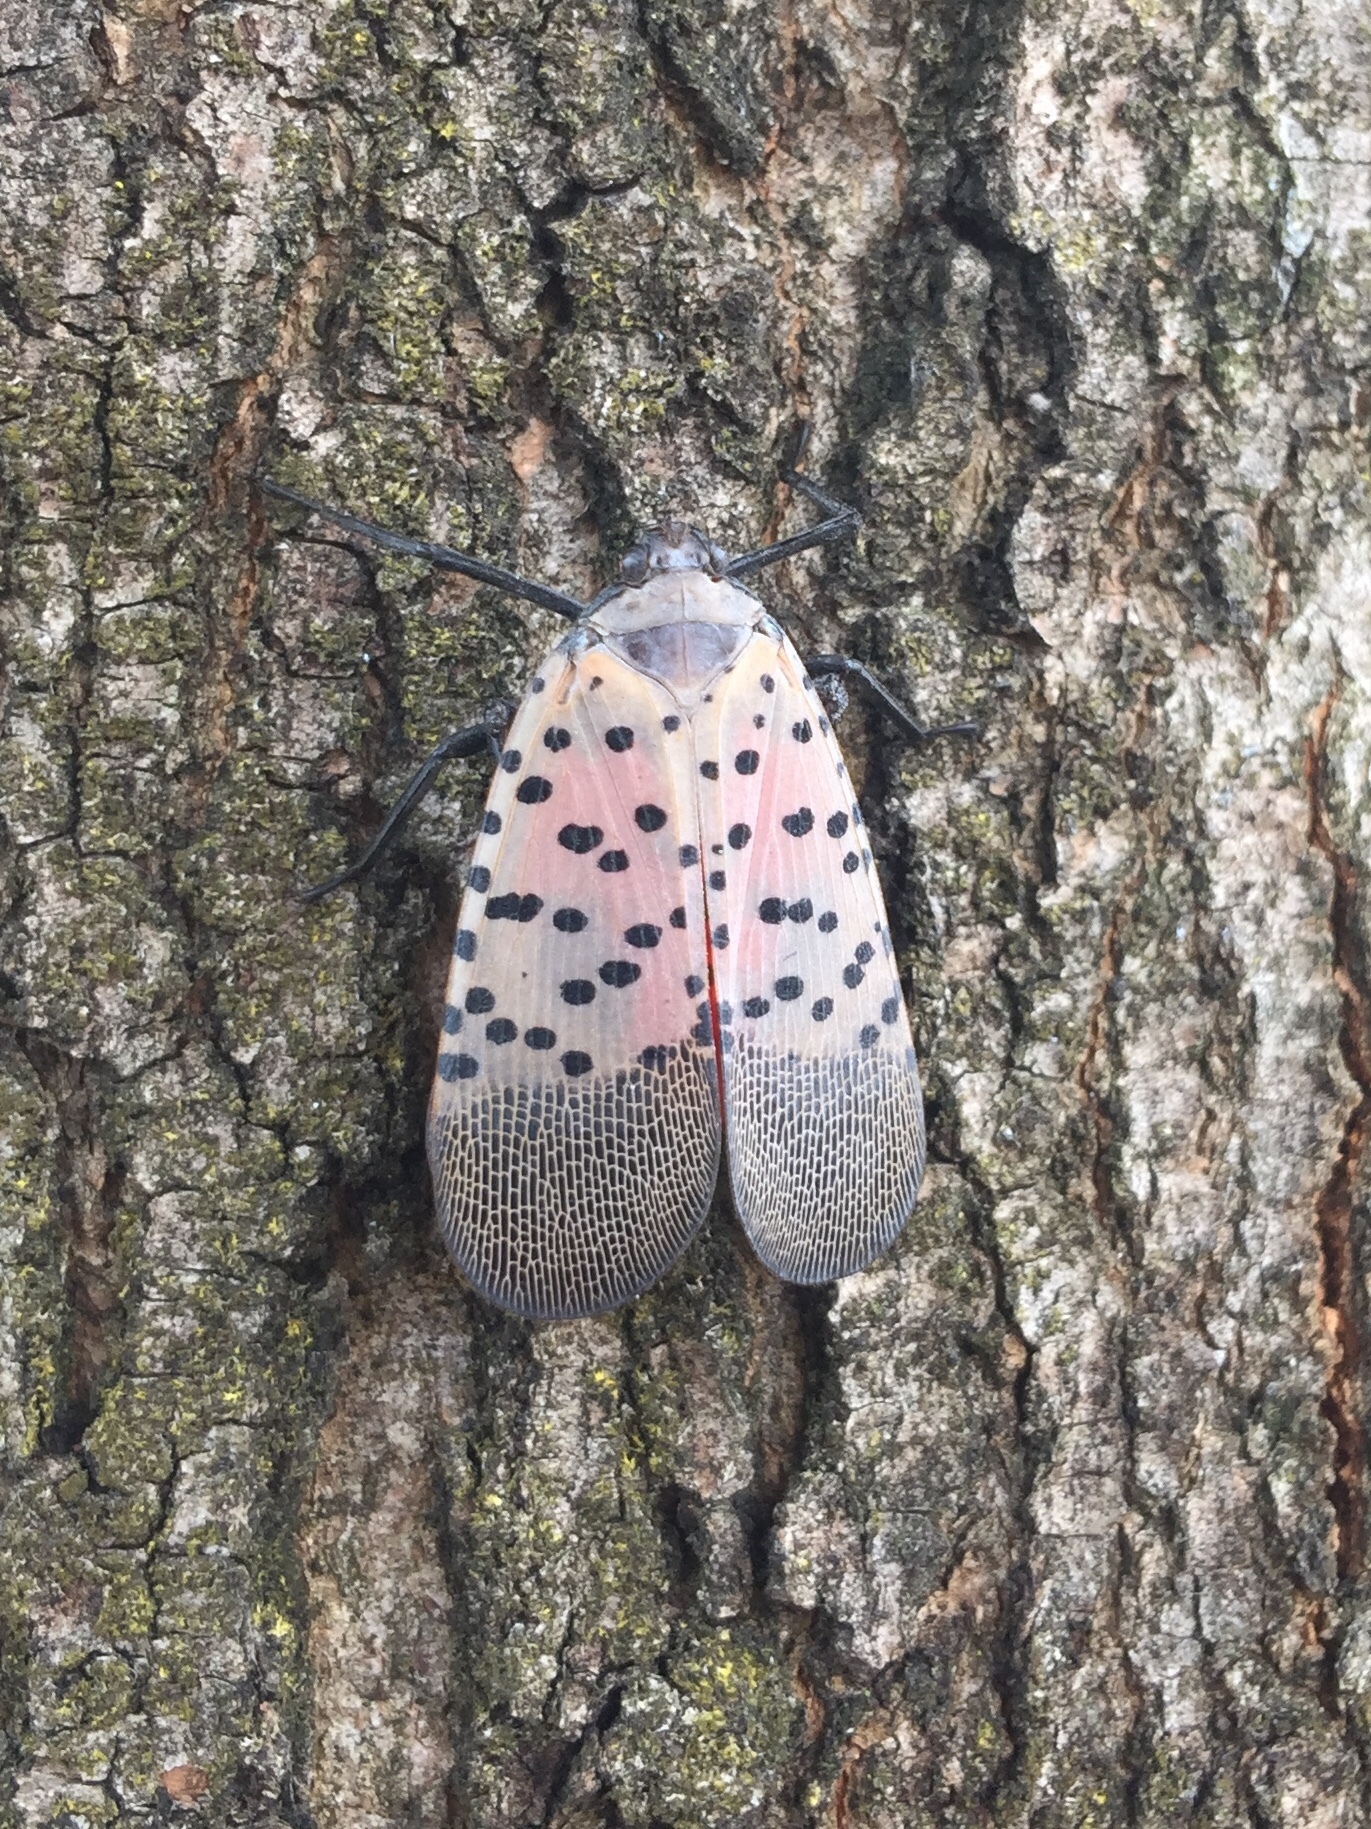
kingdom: Animalia
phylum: Arthropoda
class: Insecta
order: Hemiptera
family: Fulgoridae
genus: Lycorma
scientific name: Lycorma delicatula
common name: Spotted lanternfly
